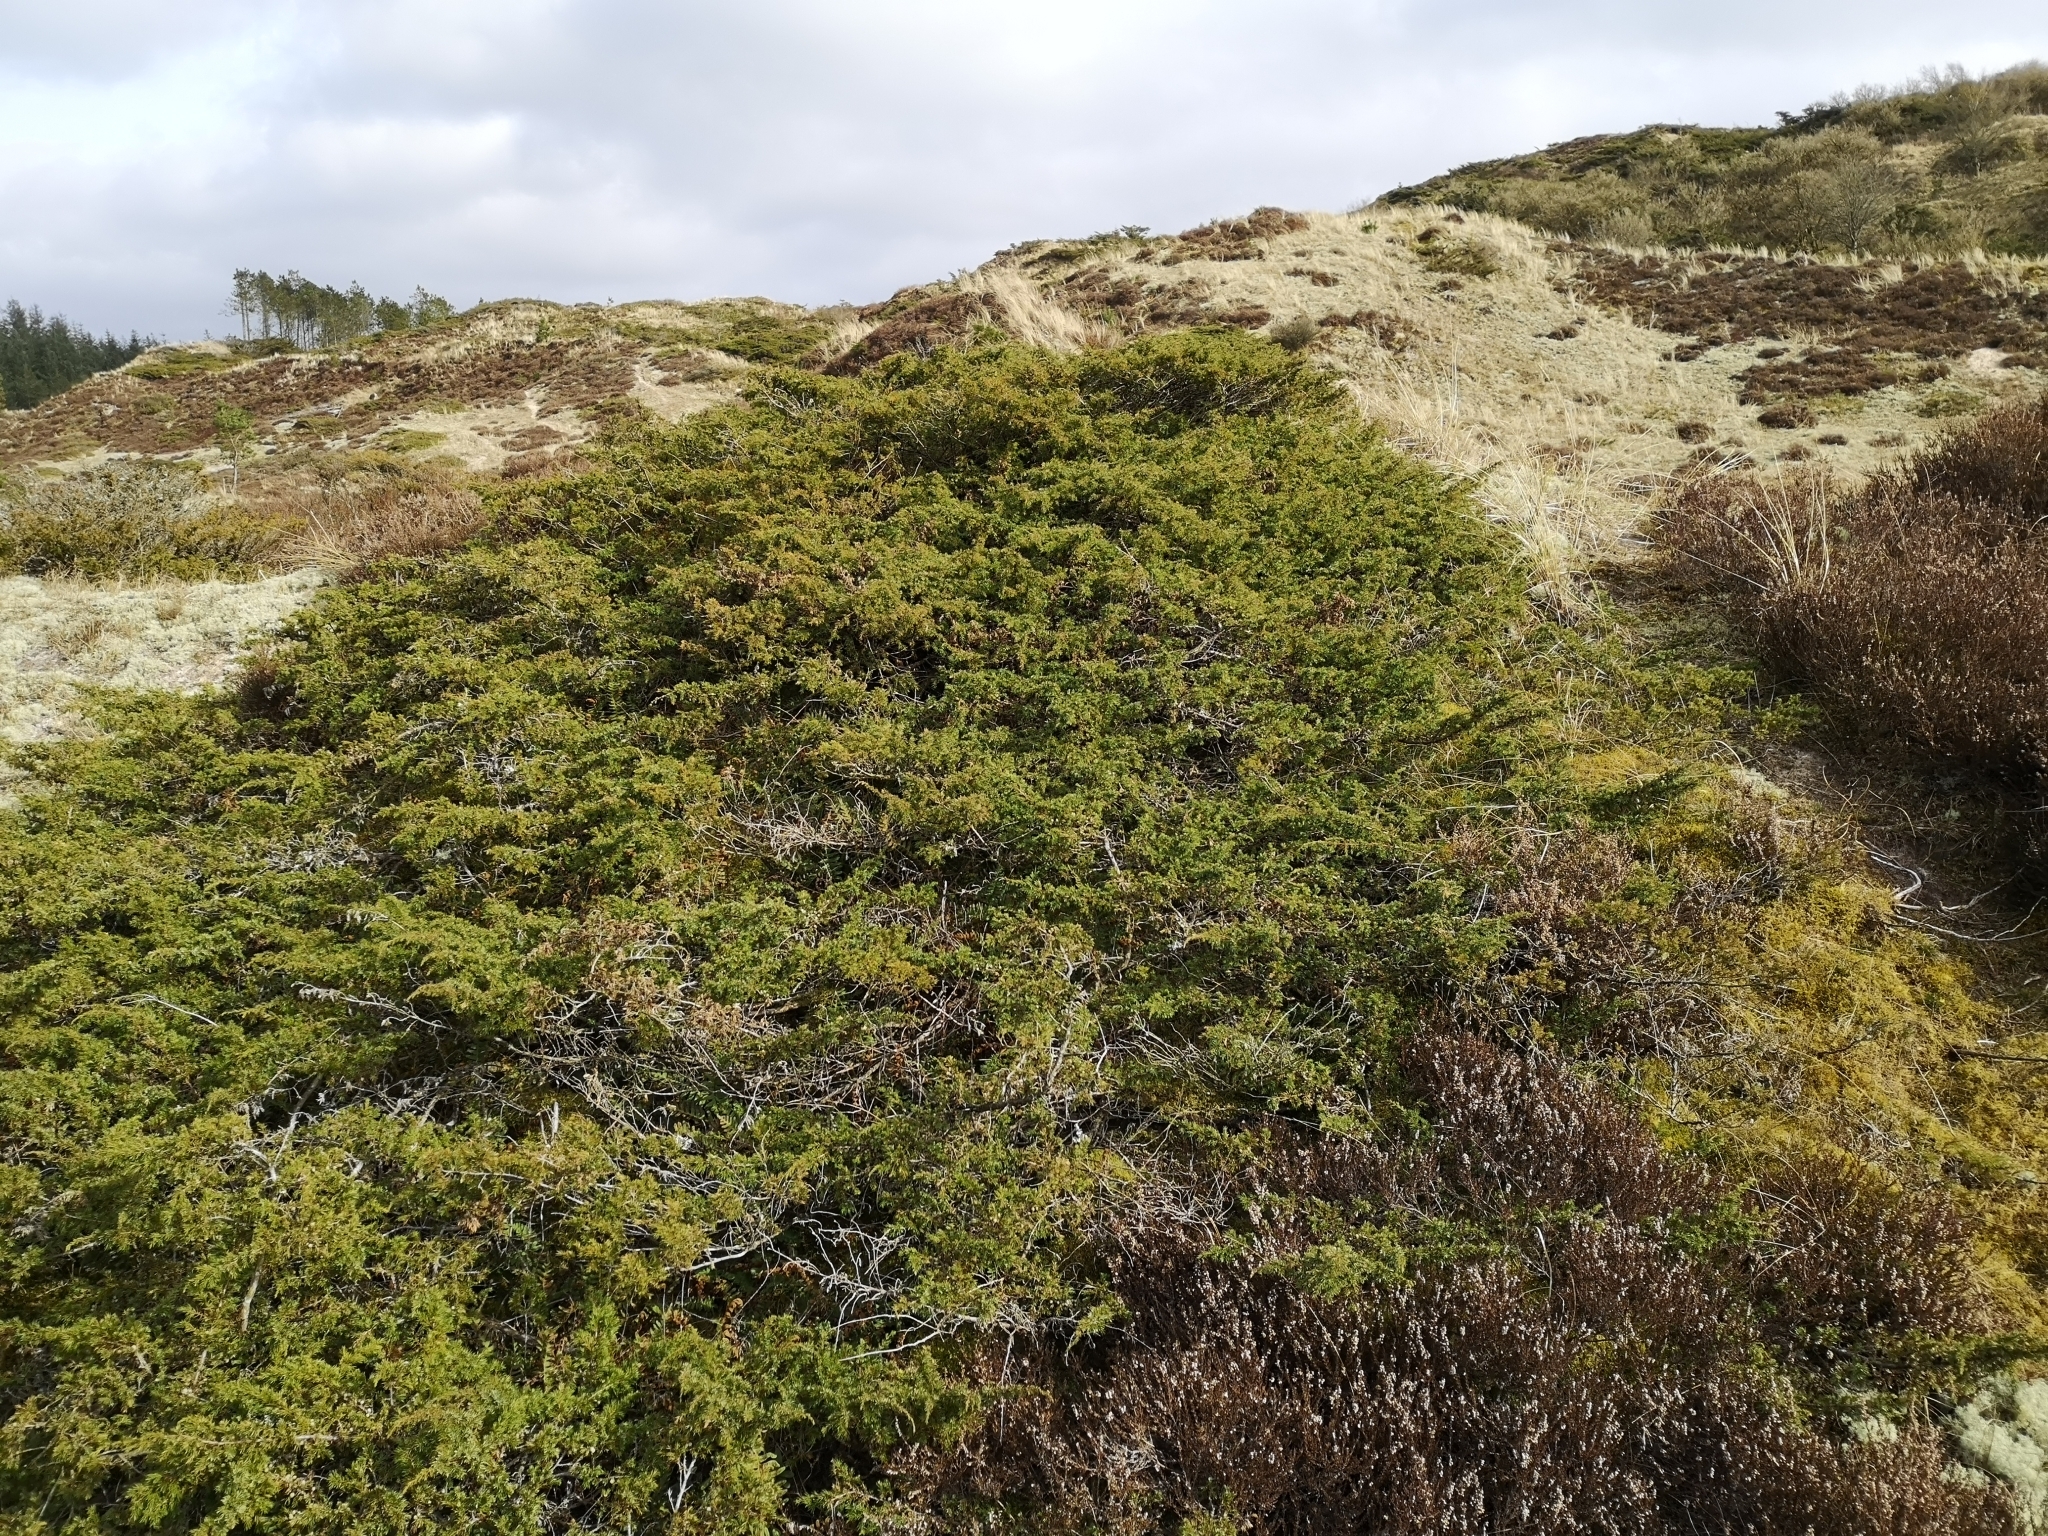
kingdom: Plantae
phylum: Tracheophyta
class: Pinopsida
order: Pinales
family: Cupressaceae
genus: Juniperus
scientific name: Juniperus communis
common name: Common juniper
